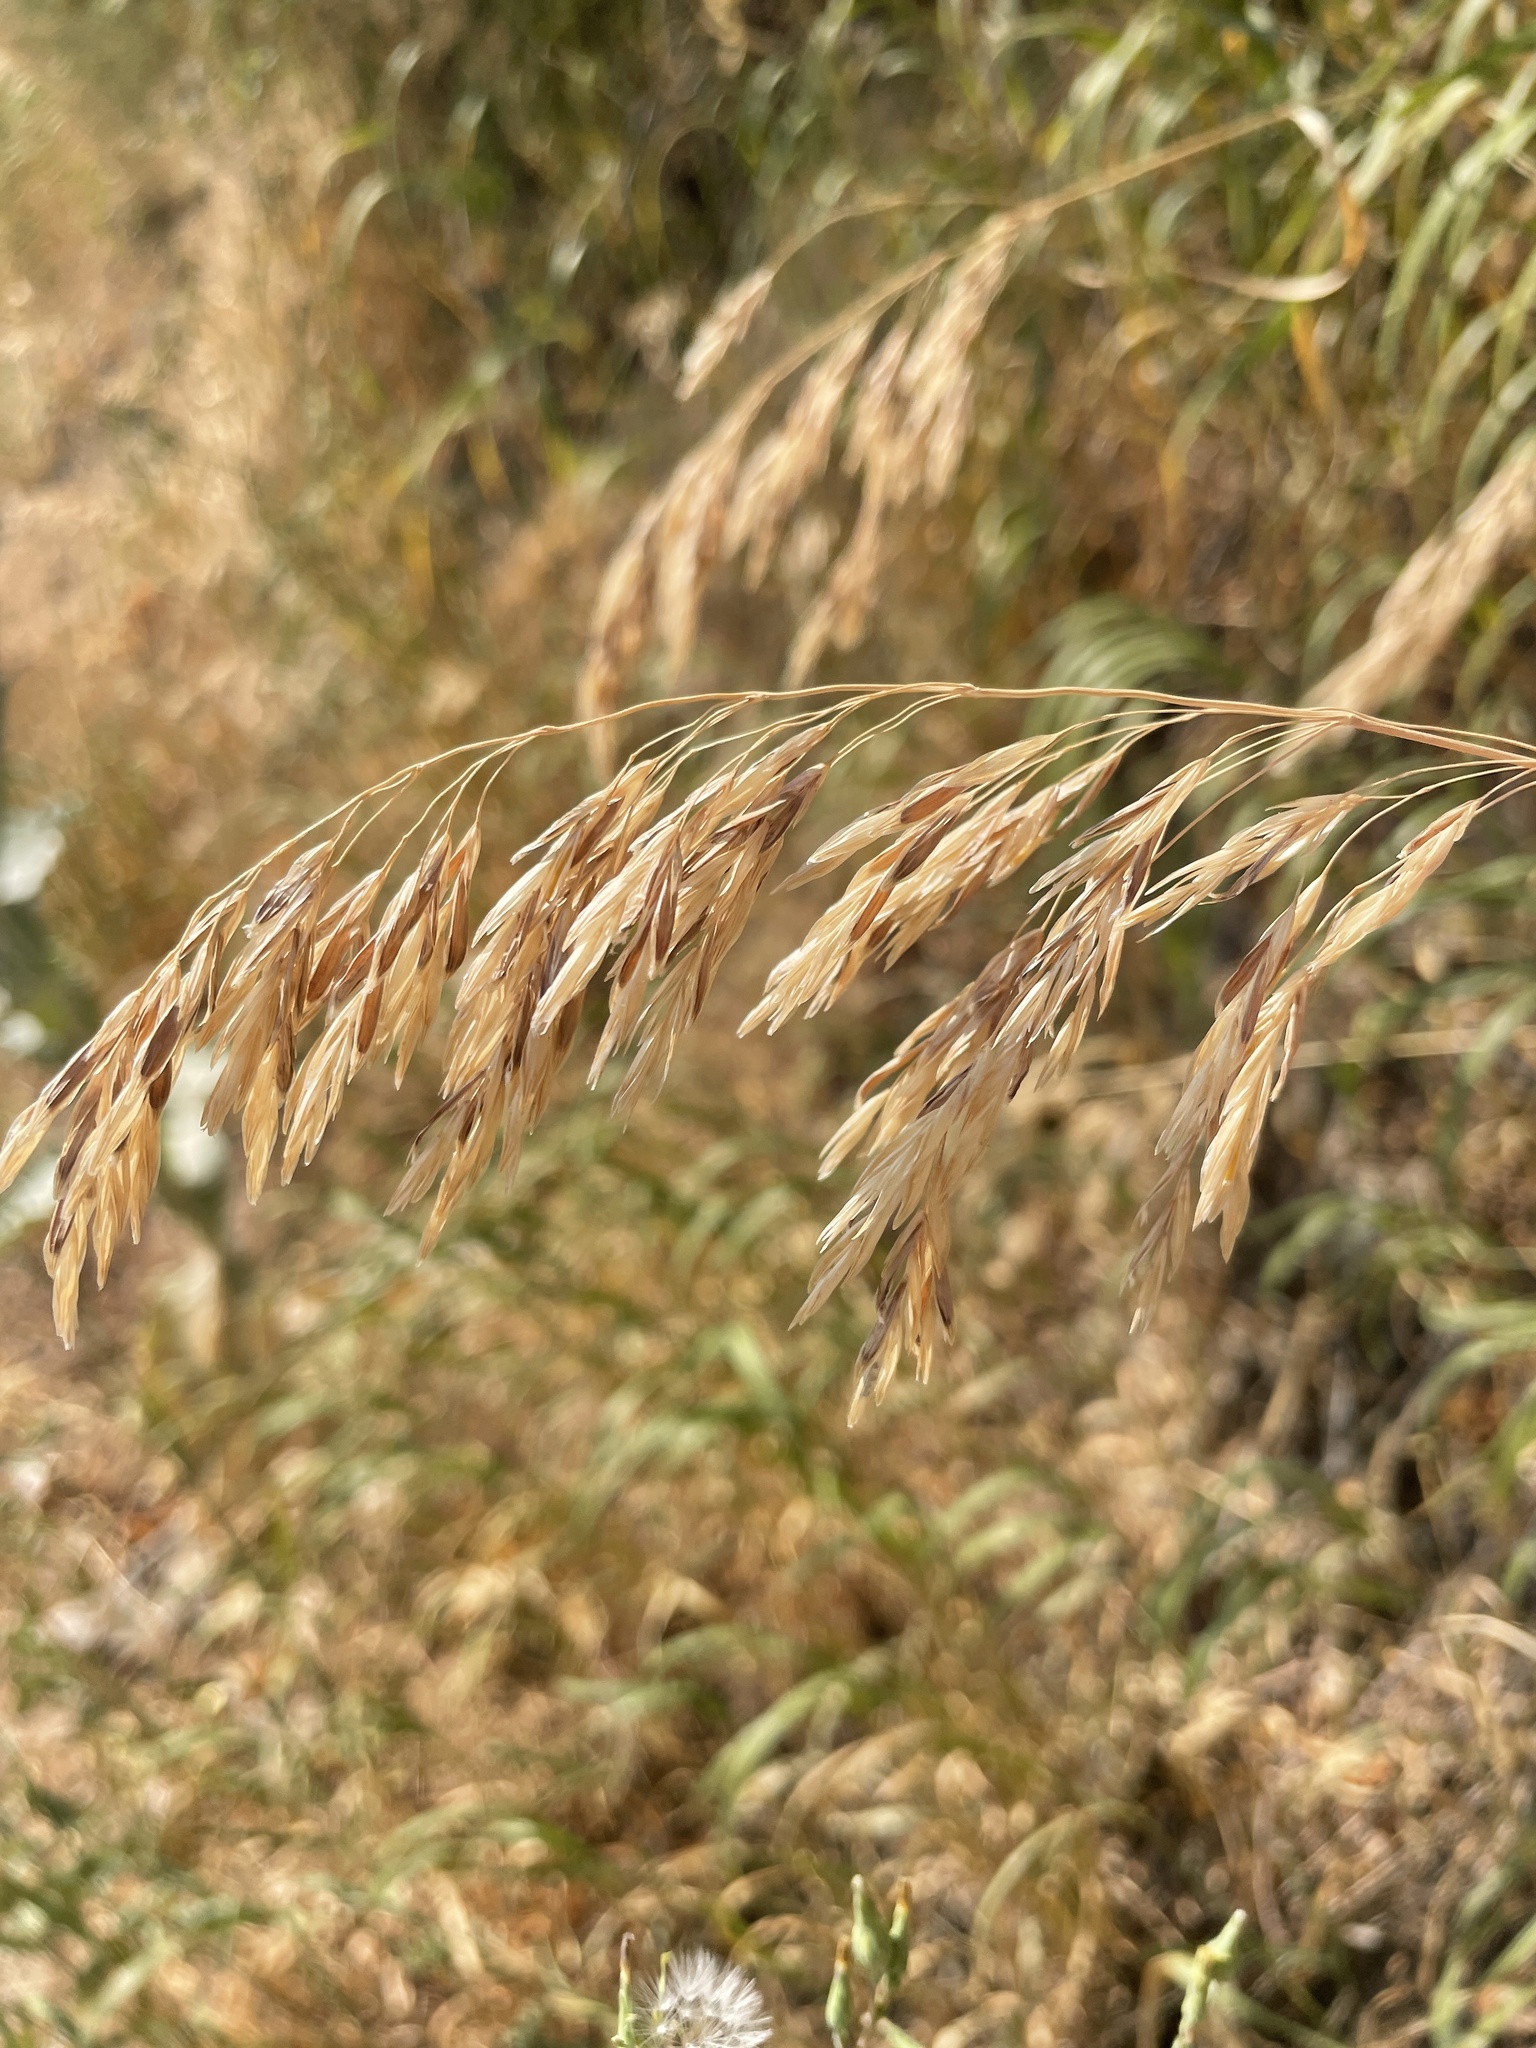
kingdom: Plantae
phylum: Tracheophyta
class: Liliopsida
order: Poales
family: Poaceae
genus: Bromus
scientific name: Bromus inermis
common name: Smooth brome
